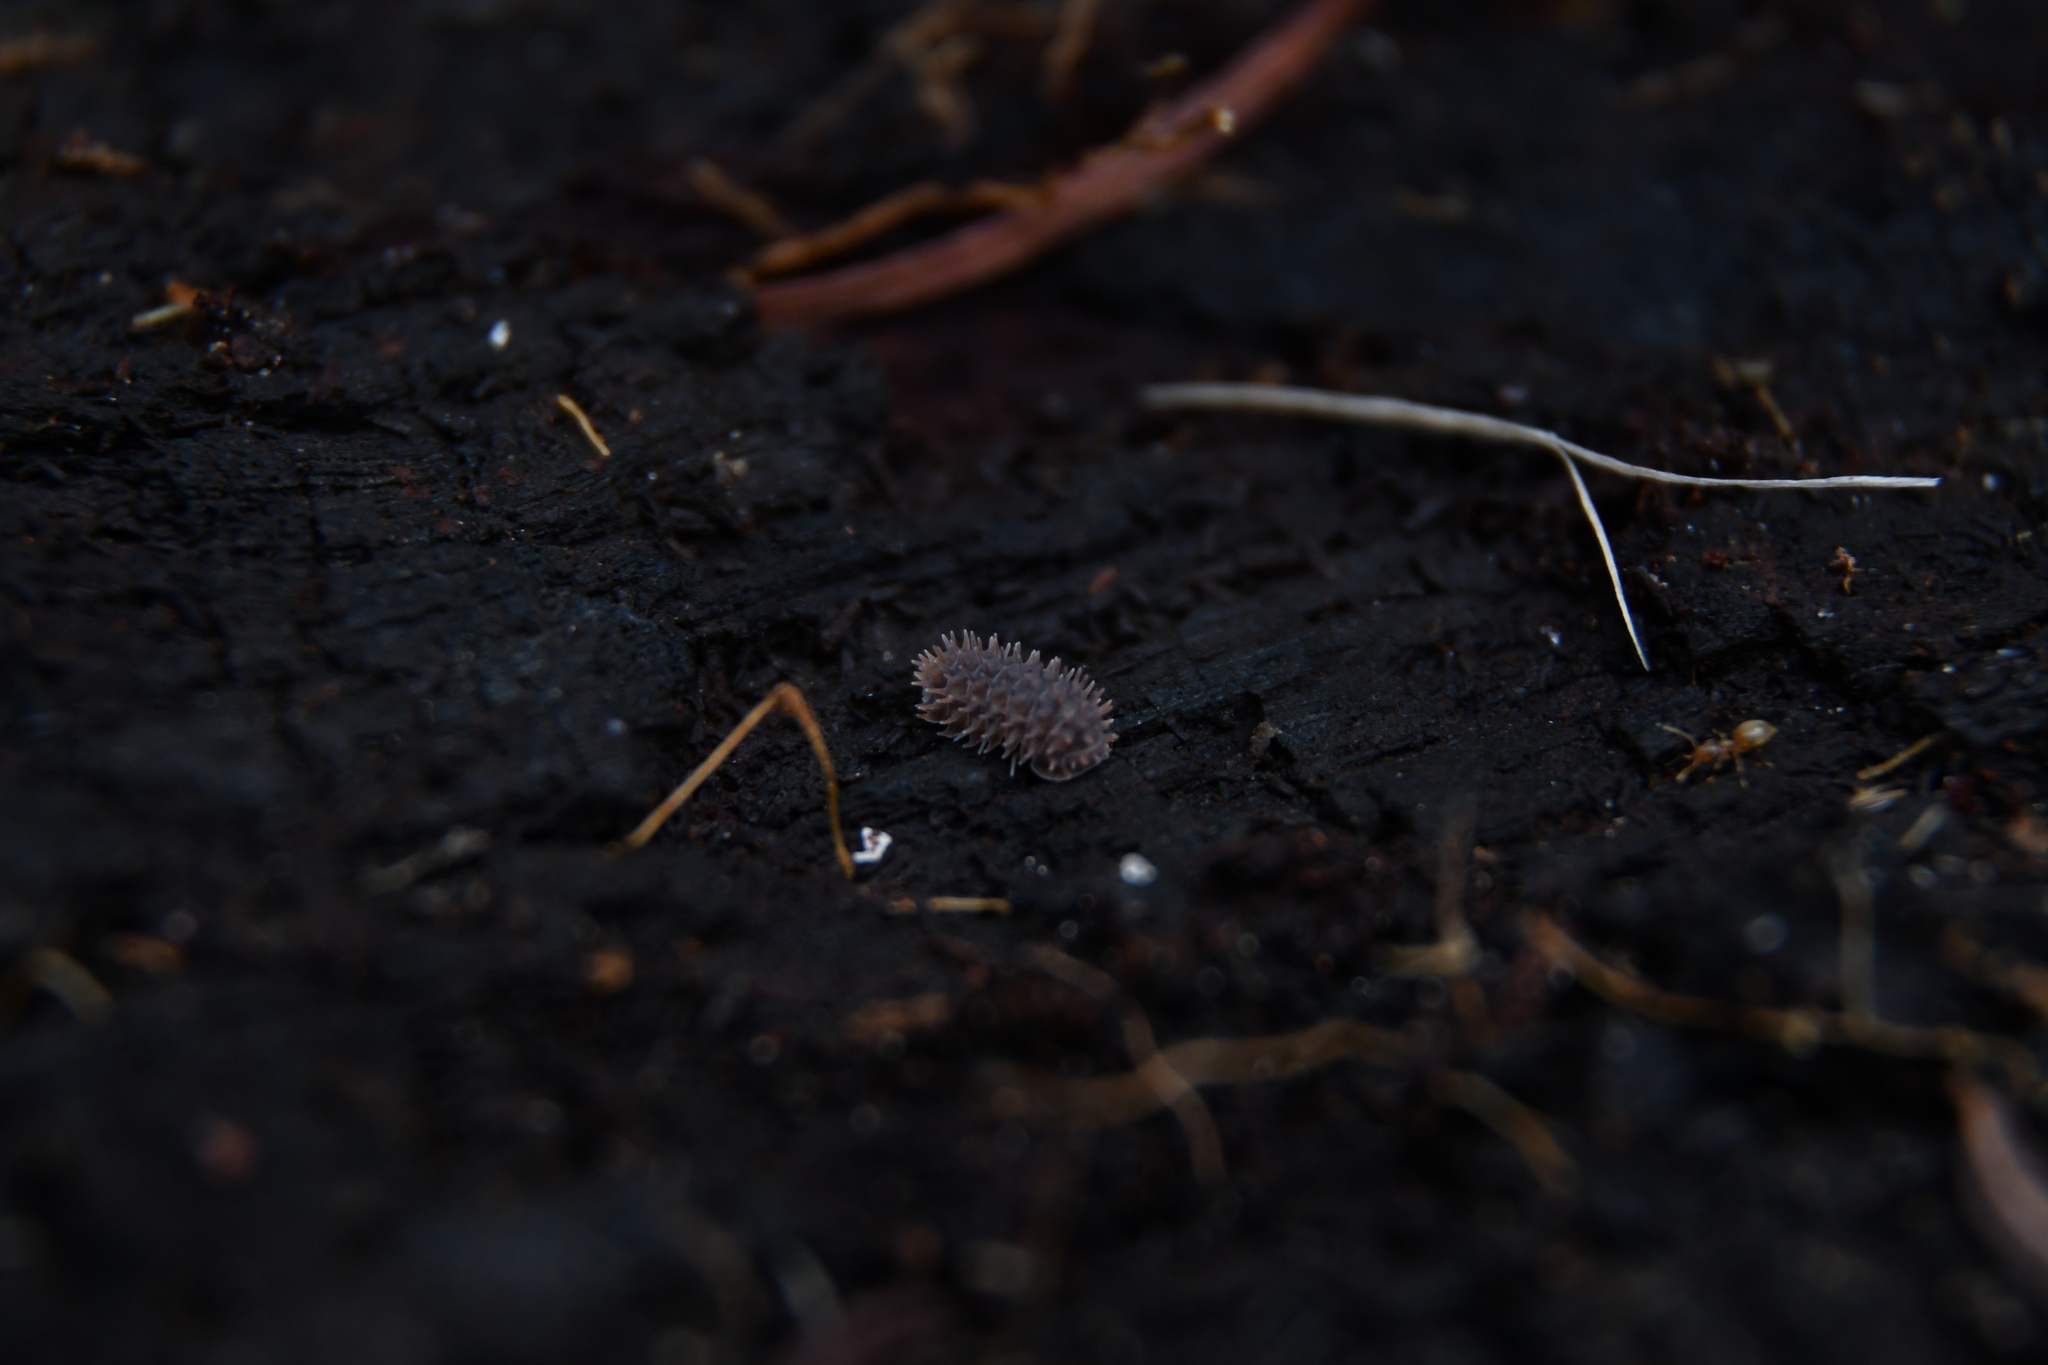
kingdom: Animalia
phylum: Arthropoda
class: Malacostraca
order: Isopoda
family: Armadillidae
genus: Pseudolaureola
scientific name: Pseudolaureola wilsmorei
